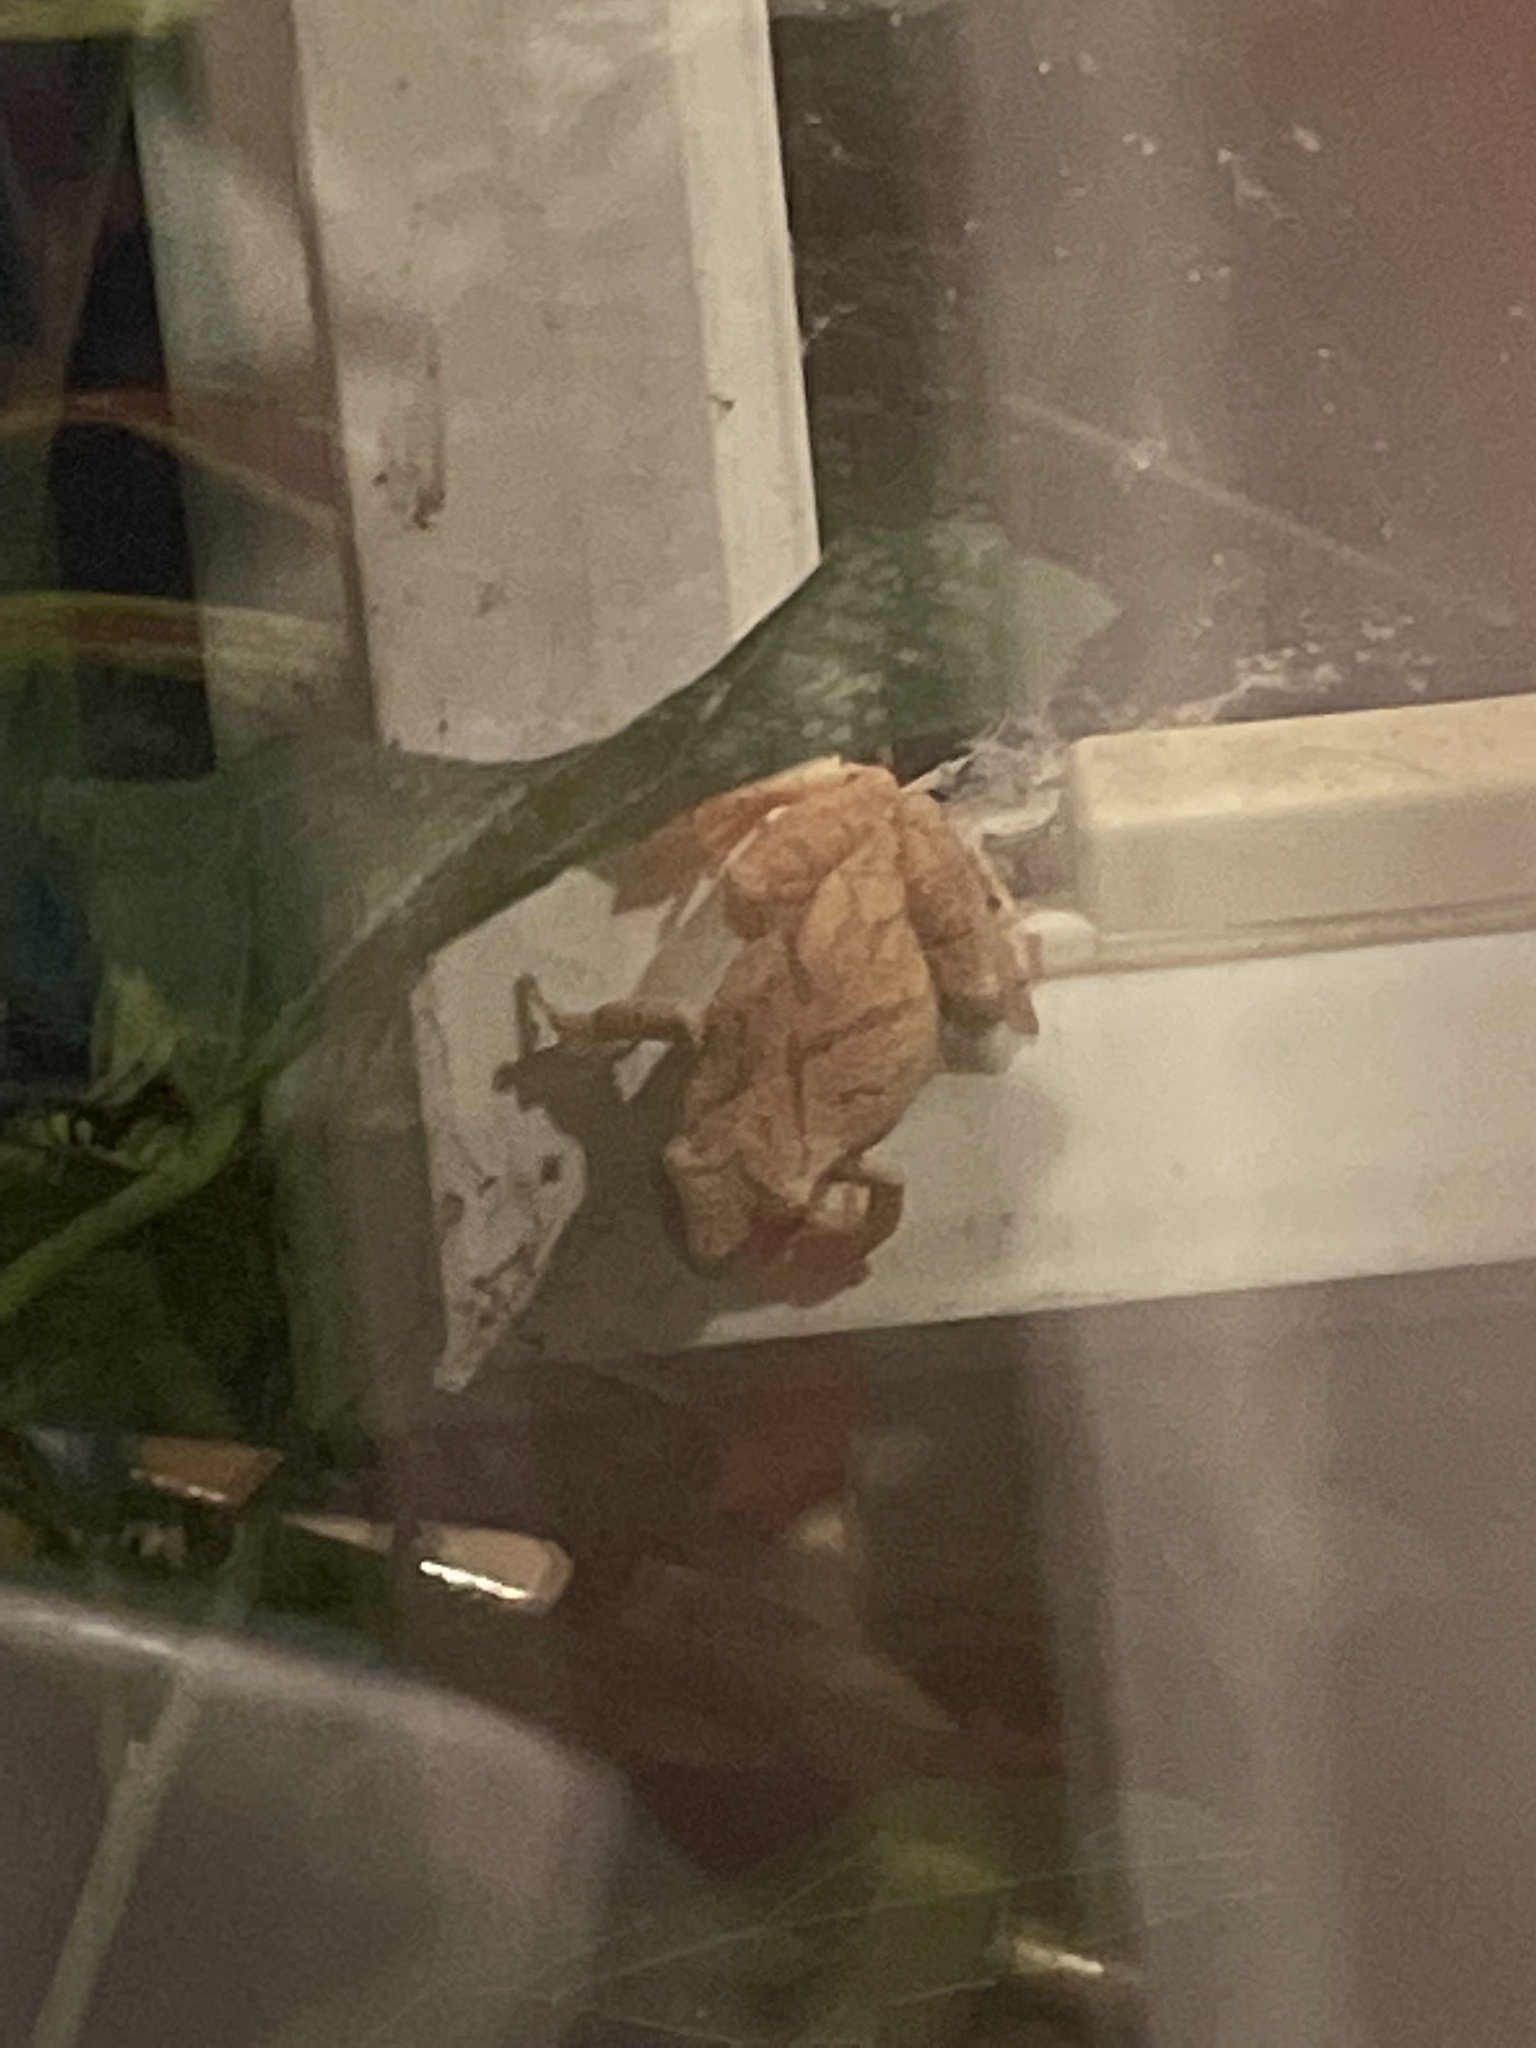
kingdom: Animalia
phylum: Chordata
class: Amphibia
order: Anura
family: Hylidae
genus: Pseudacris
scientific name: Pseudacris crucifer
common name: Spring peeper
